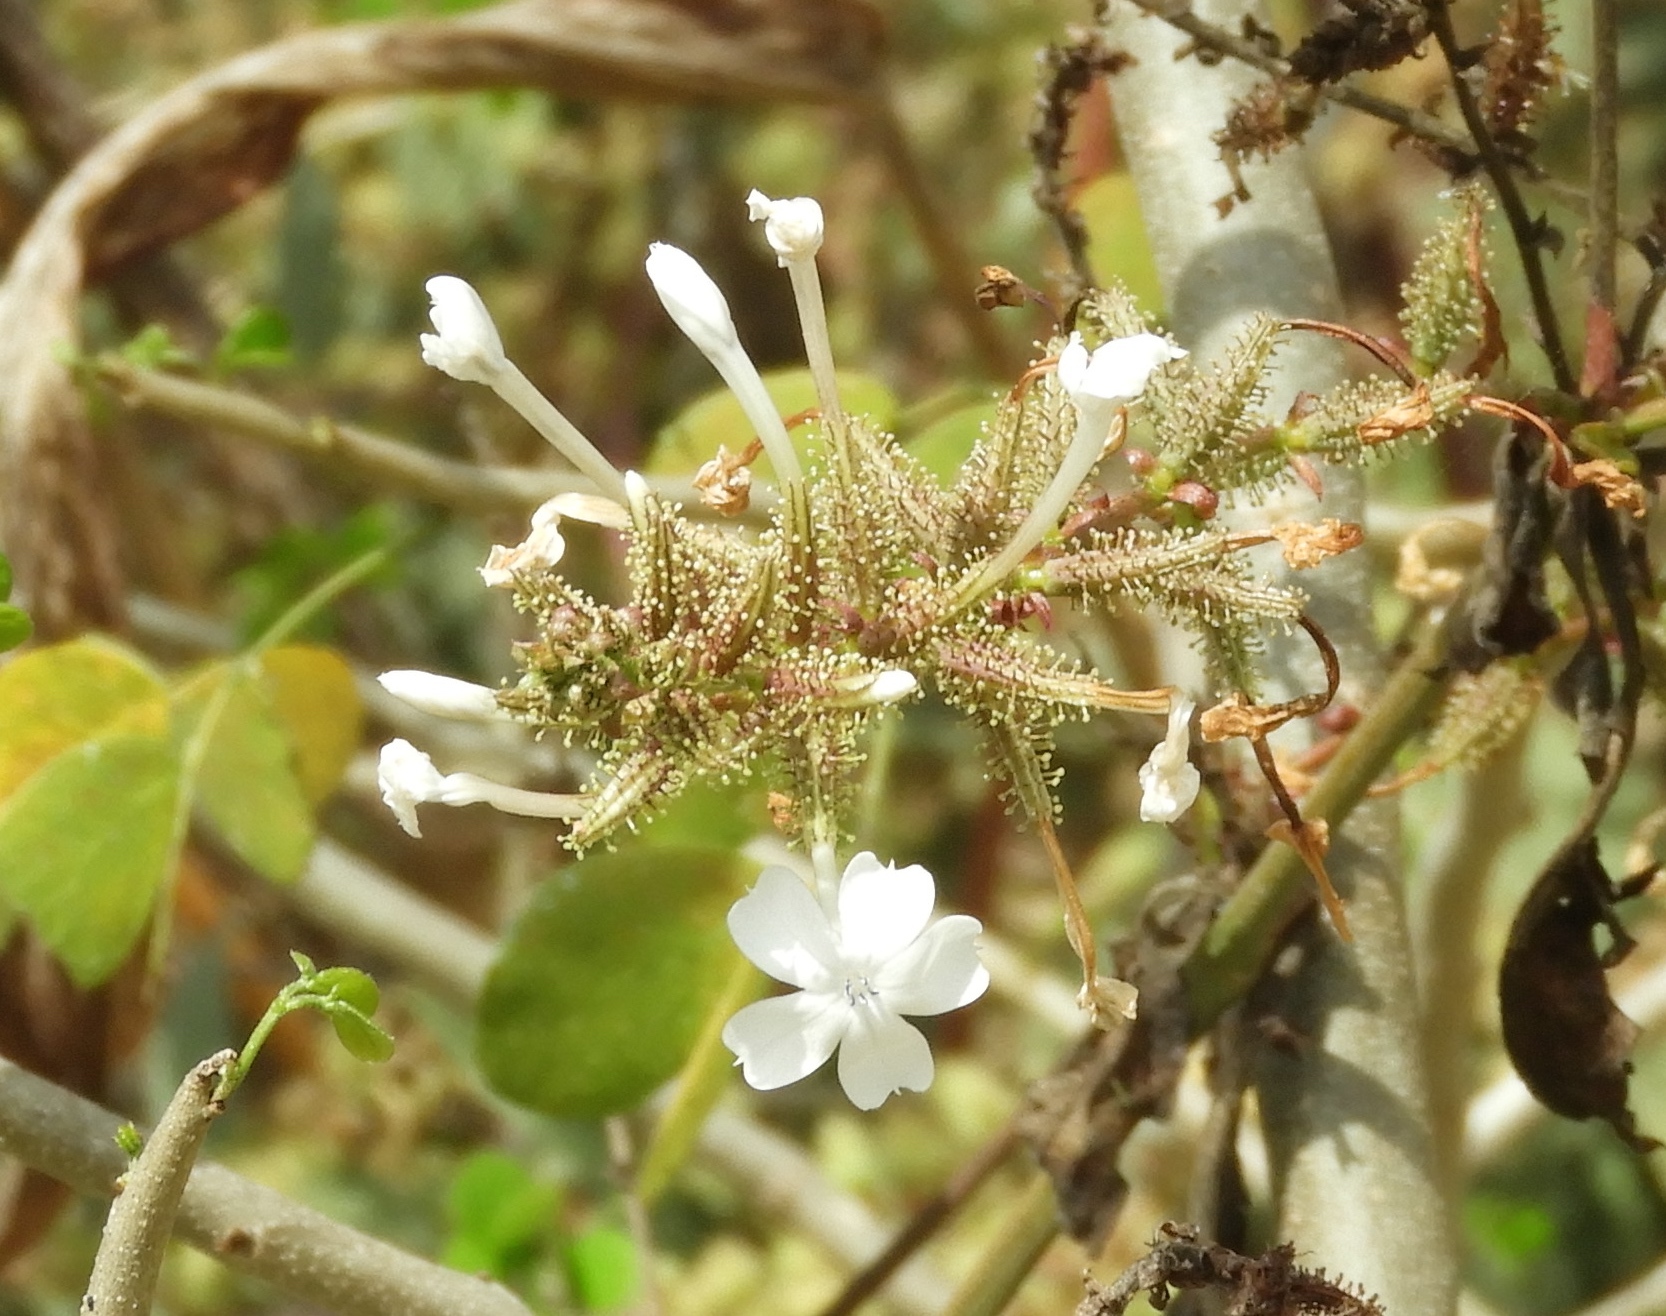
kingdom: Plantae
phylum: Tracheophyta
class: Magnoliopsida
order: Caryophyllales
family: Plumbaginaceae
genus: Plumbago
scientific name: Plumbago zeylanica
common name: Doctorbush
